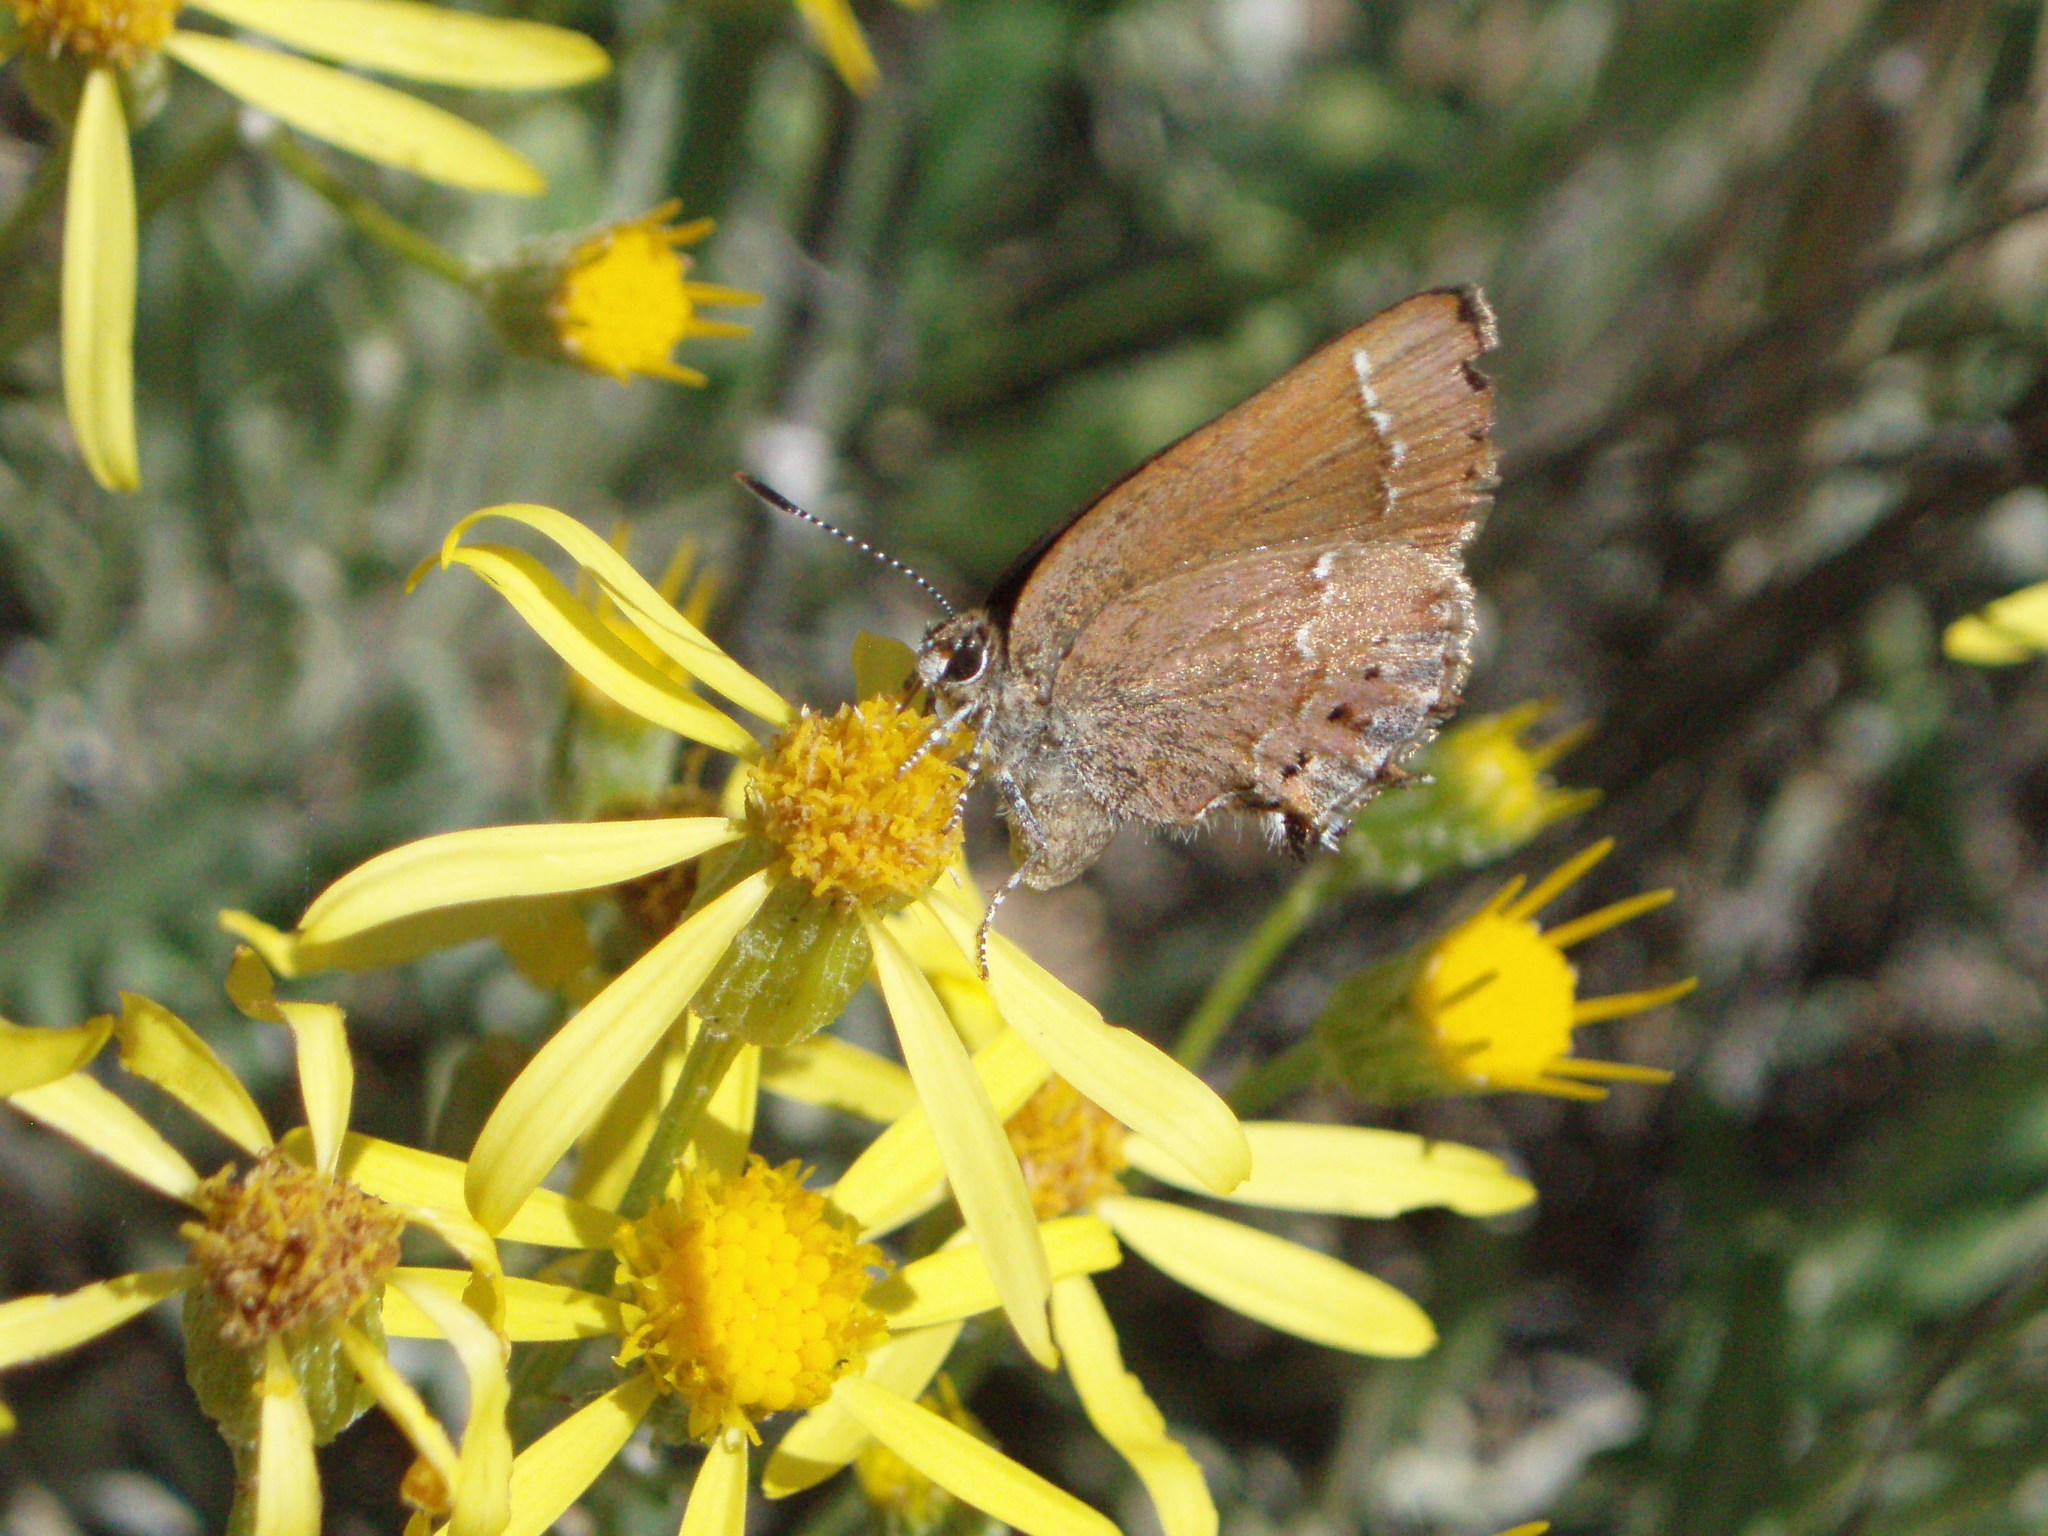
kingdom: Animalia
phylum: Arthropoda
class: Insecta
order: Lepidoptera
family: Lycaenidae
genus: Mitoura
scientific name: Mitoura nelsoni
